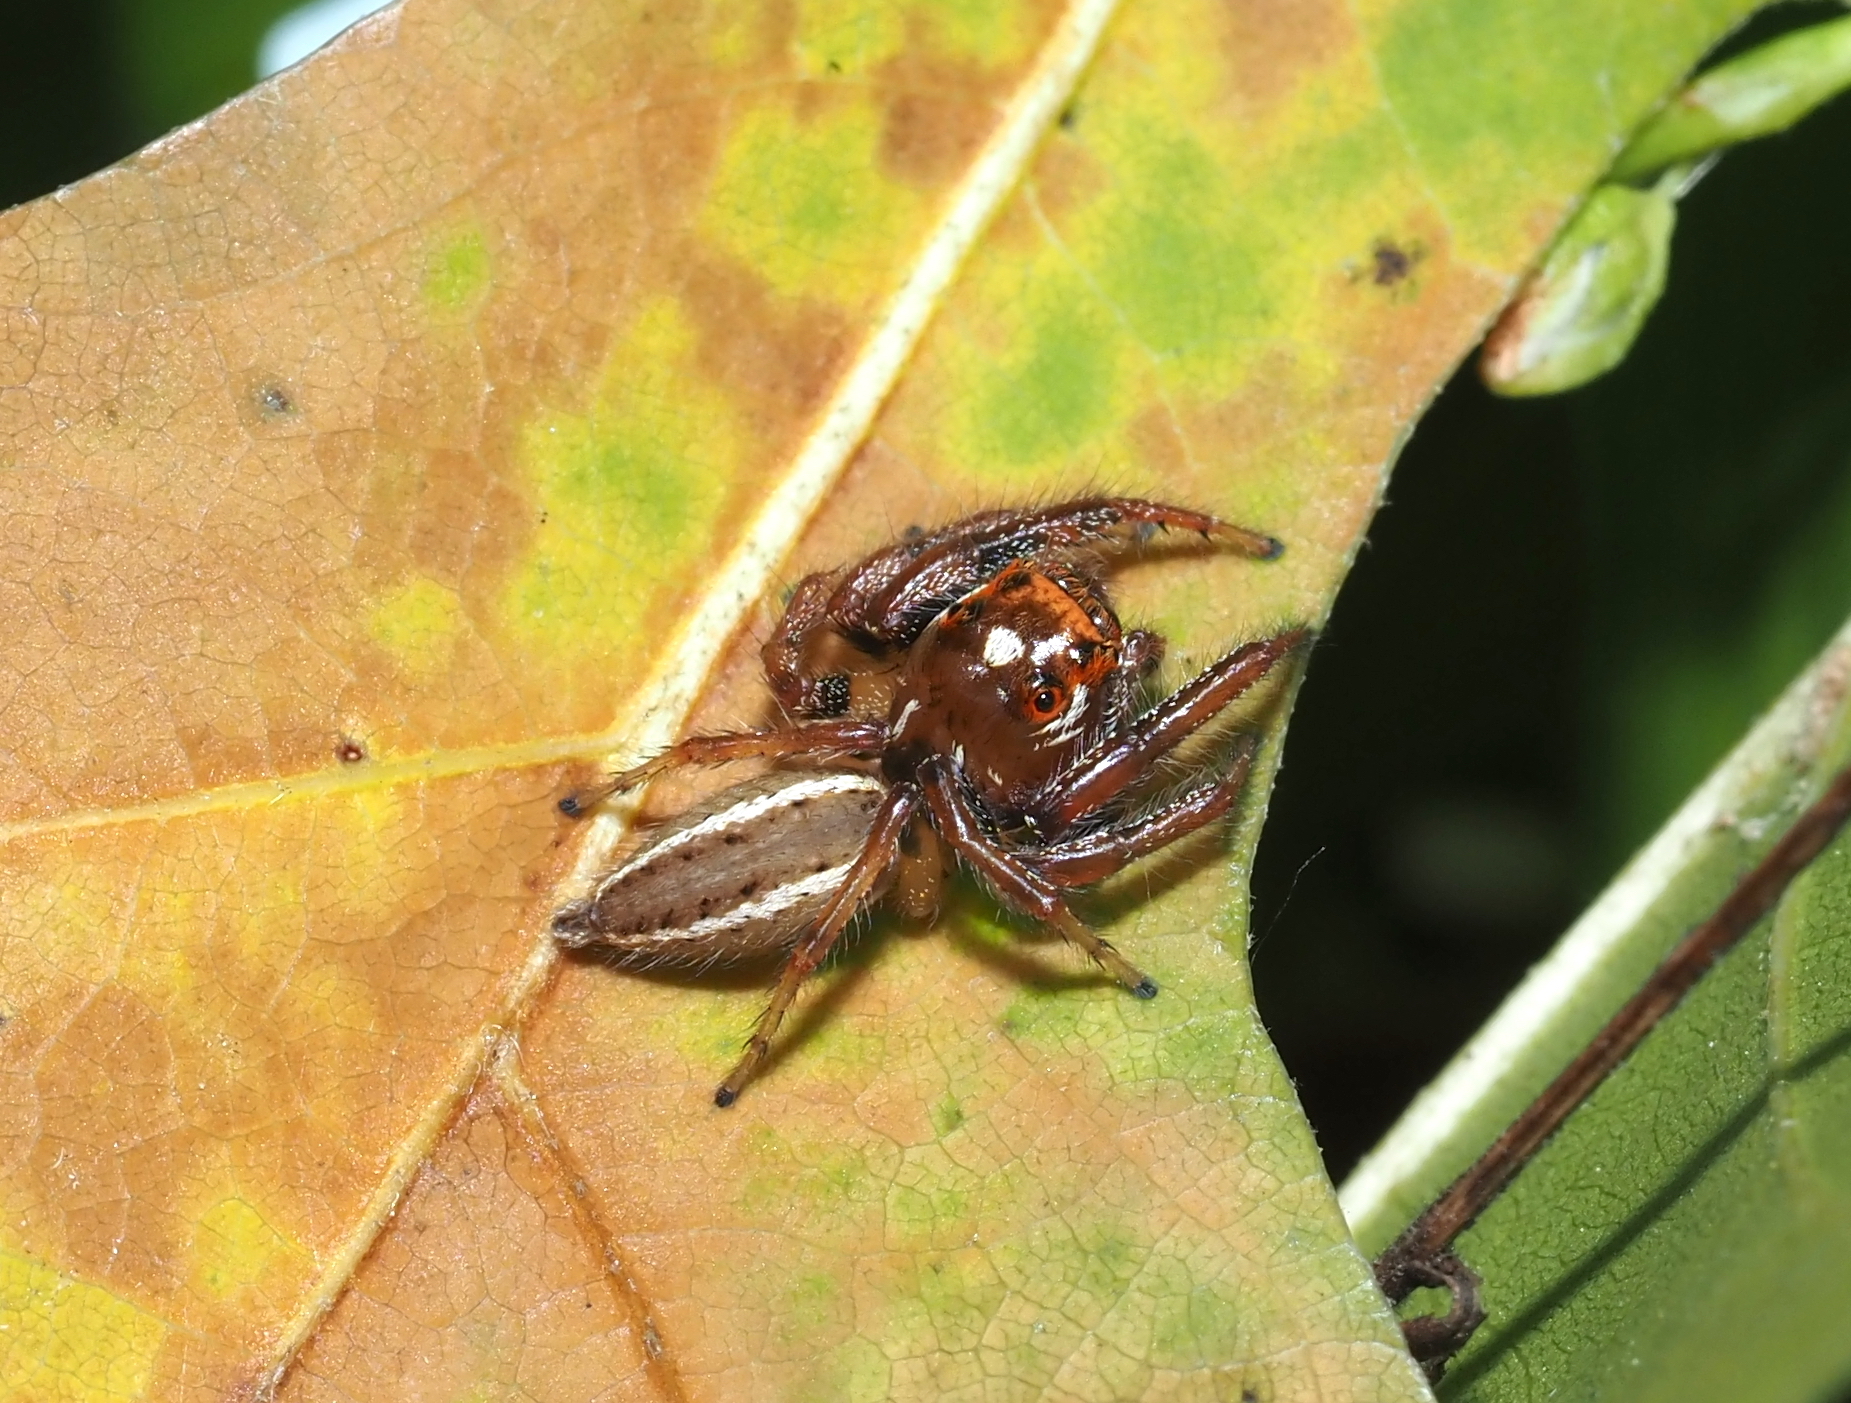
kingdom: Animalia
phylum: Arthropoda
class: Arachnida
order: Araneae
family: Salticidae
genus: Colonus
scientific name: Colonus sylvanus
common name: Jumping spiders
